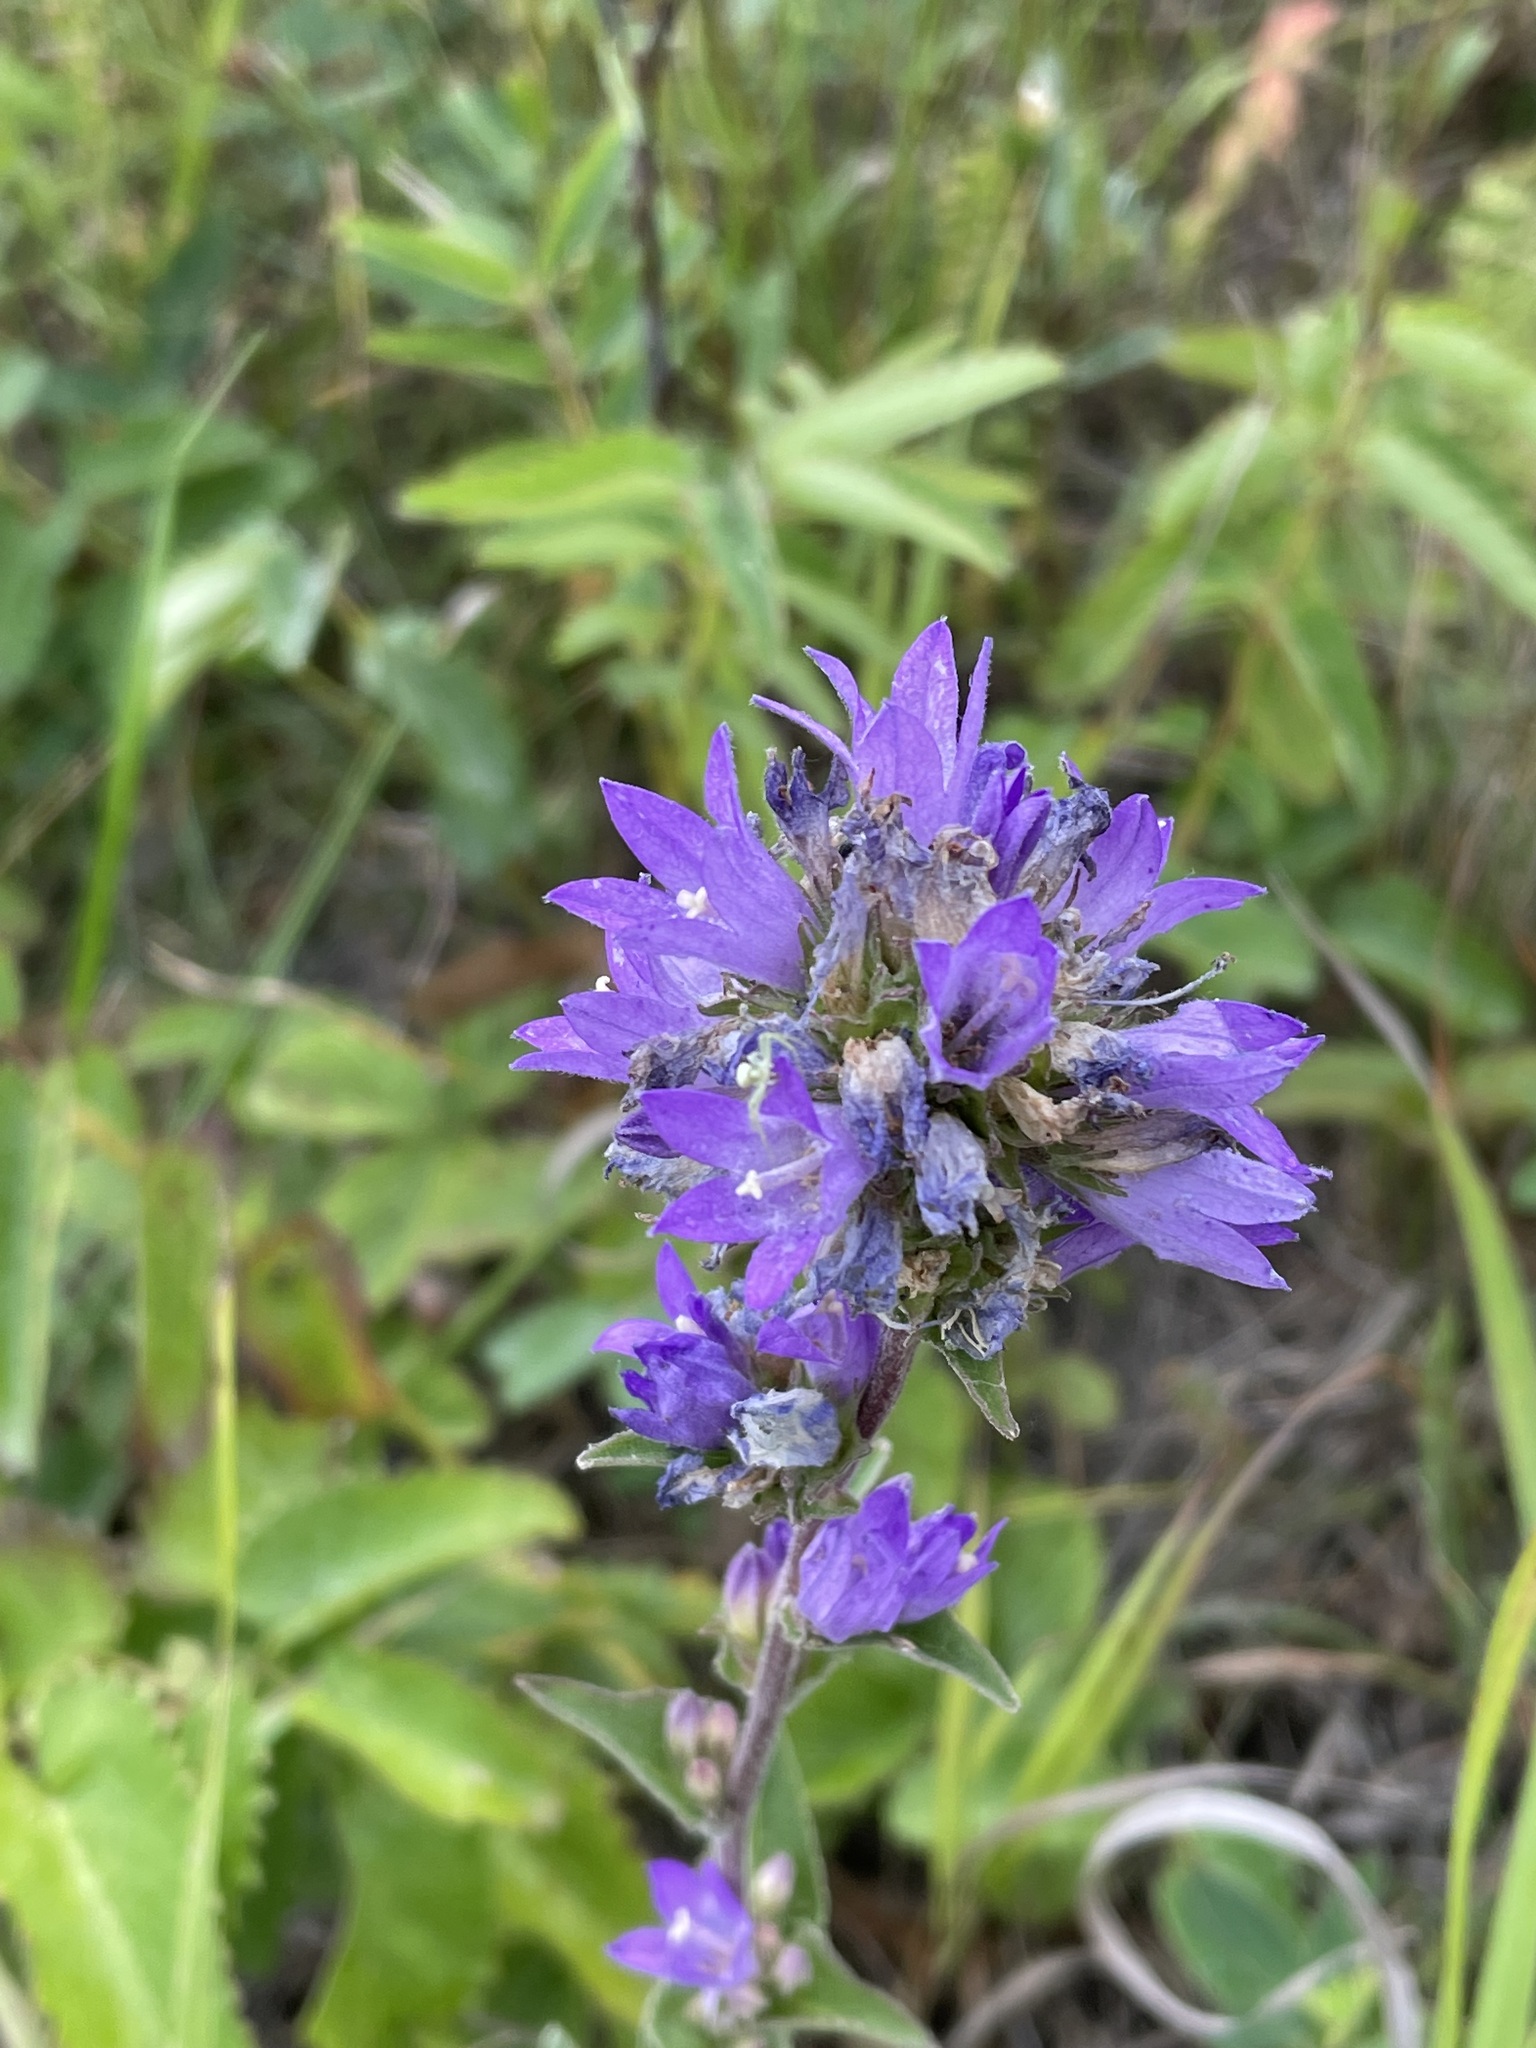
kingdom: Plantae
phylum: Tracheophyta
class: Magnoliopsida
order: Asterales
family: Campanulaceae
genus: Campanula
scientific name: Campanula glomerata
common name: Clustered bellflower
